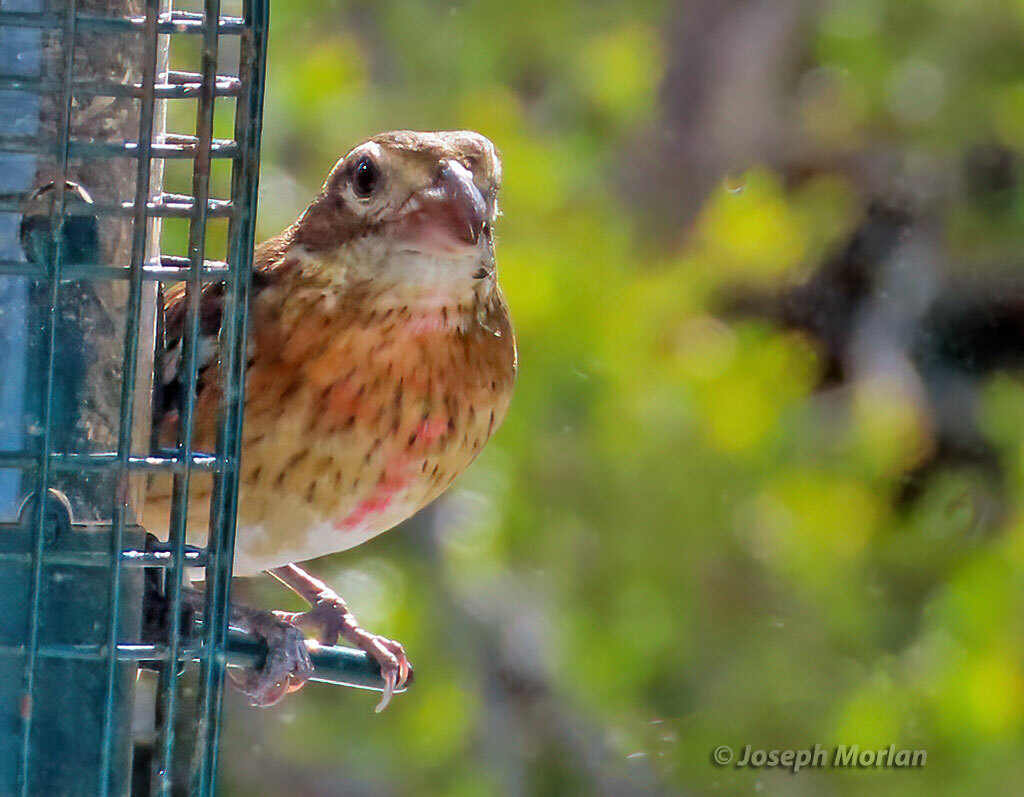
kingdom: Animalia
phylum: Chordata
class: Aves
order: Passeriformes
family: Cardinalidae
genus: Pheucticus
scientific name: Pheucticus ludovicianus
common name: Rose-breasted grosbeak
